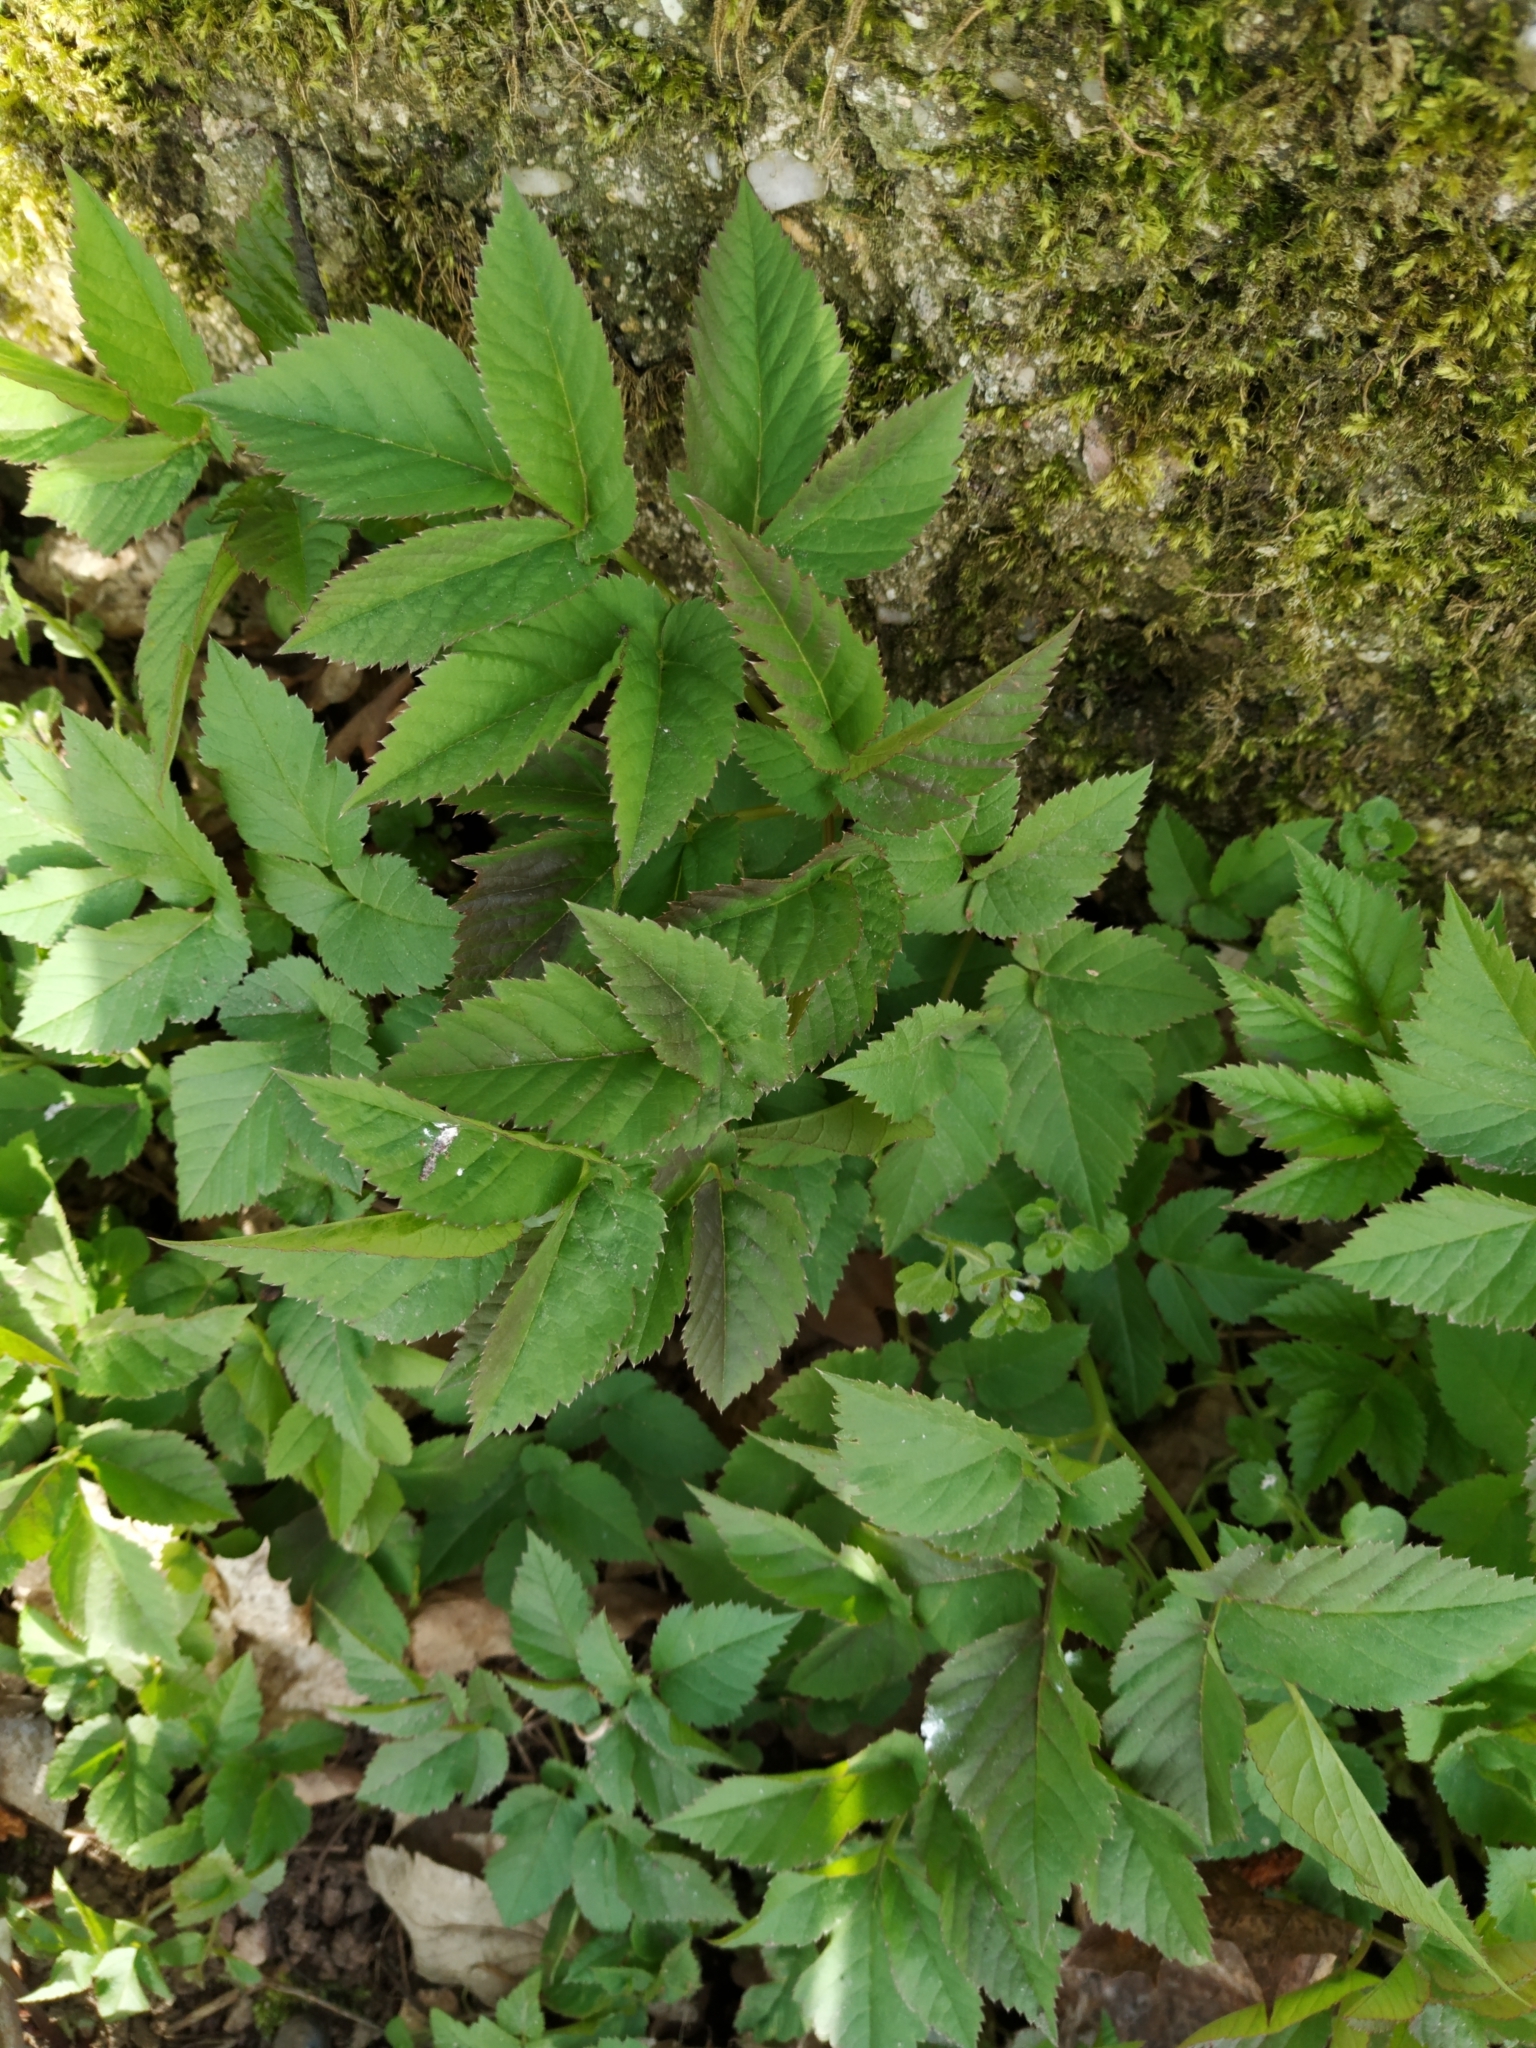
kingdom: Plantae
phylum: Tracheophyta
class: Magnoliopsida
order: Apiales
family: Apiaceae
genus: Aegopodium
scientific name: Aegopodium podagraria
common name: Ground-elder
